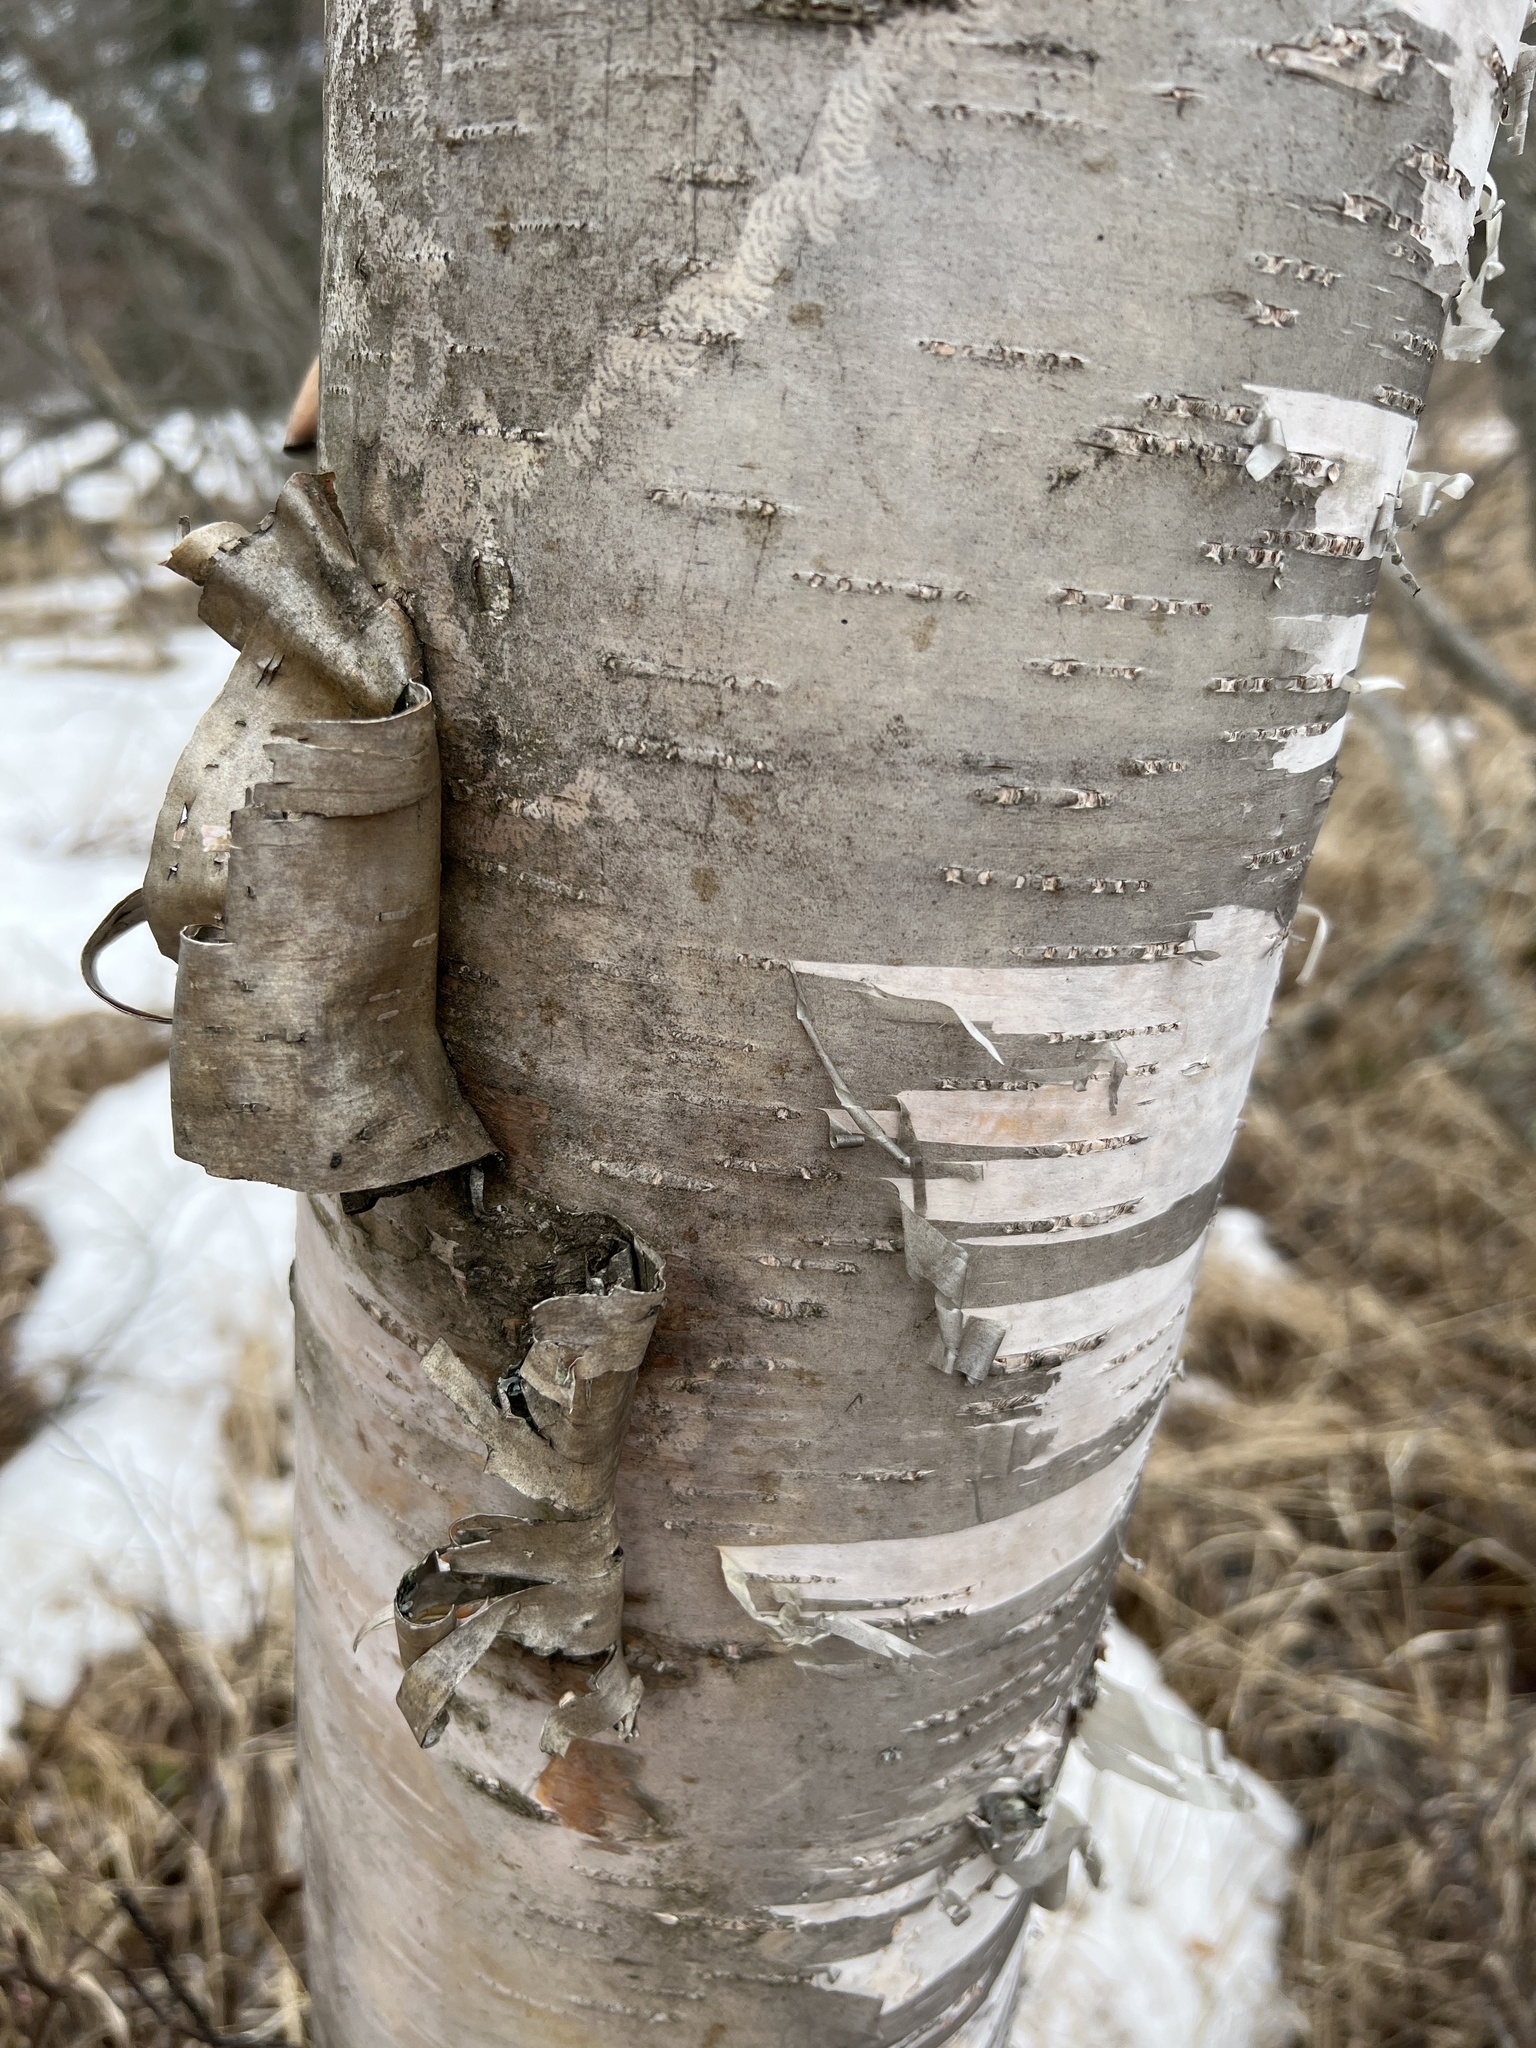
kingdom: Plantae
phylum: Tracheophyta
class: Magnoliopsida
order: Fagales
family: Betulaceae
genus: Betula
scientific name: Betula papyrifera
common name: Paper birch
